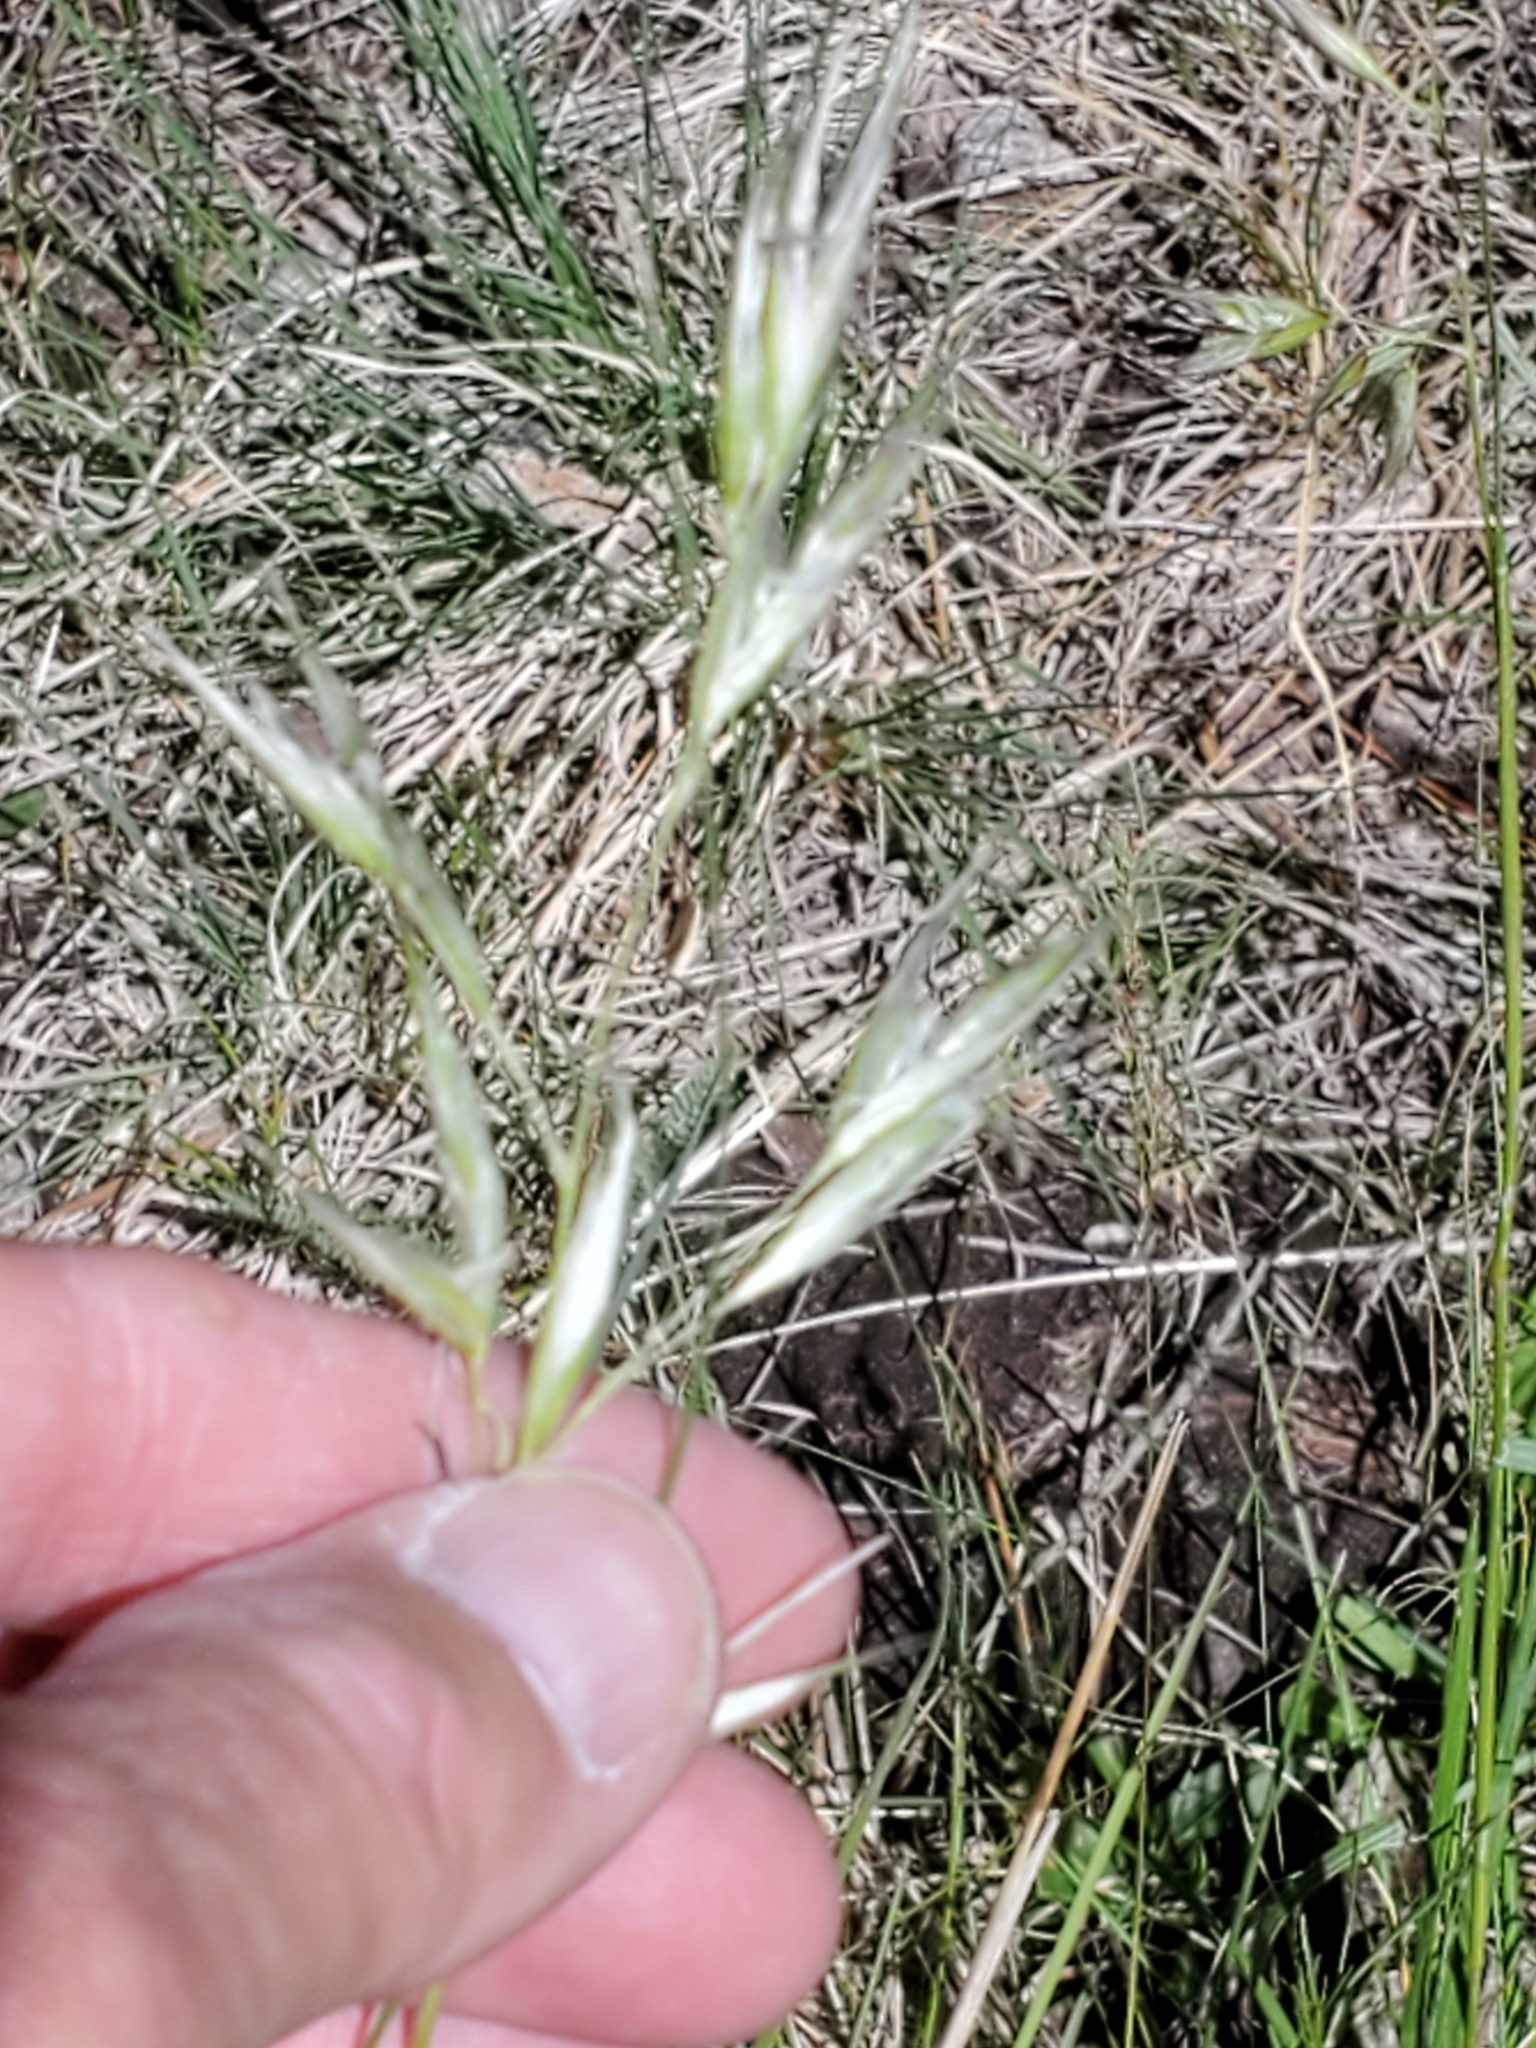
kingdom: Plantae
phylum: Tracheophyta
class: Liliopsida
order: Poales
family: Poaceae
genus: Danthonia
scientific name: Danthonia parryi
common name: Parry's oat grass
